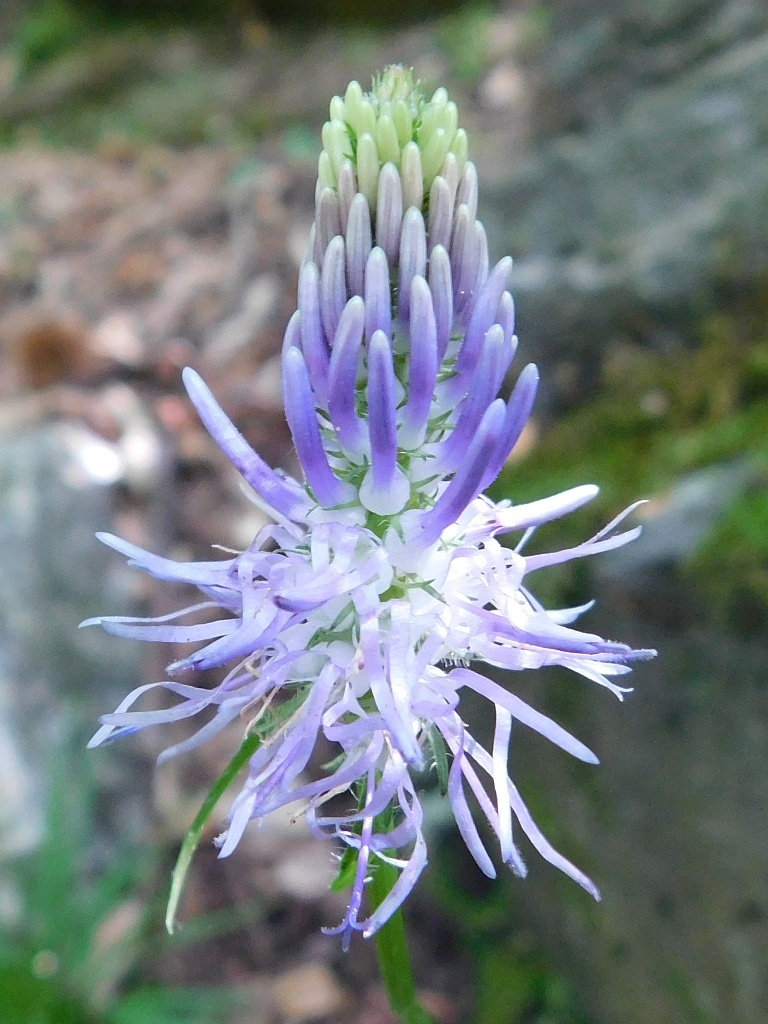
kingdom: Plantae
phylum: Tracheophyta
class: Magnoliopsida
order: Asterales
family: Campanulaceae
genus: Phyteuma
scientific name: Phyteuma spicatum
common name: Spiked rampion
